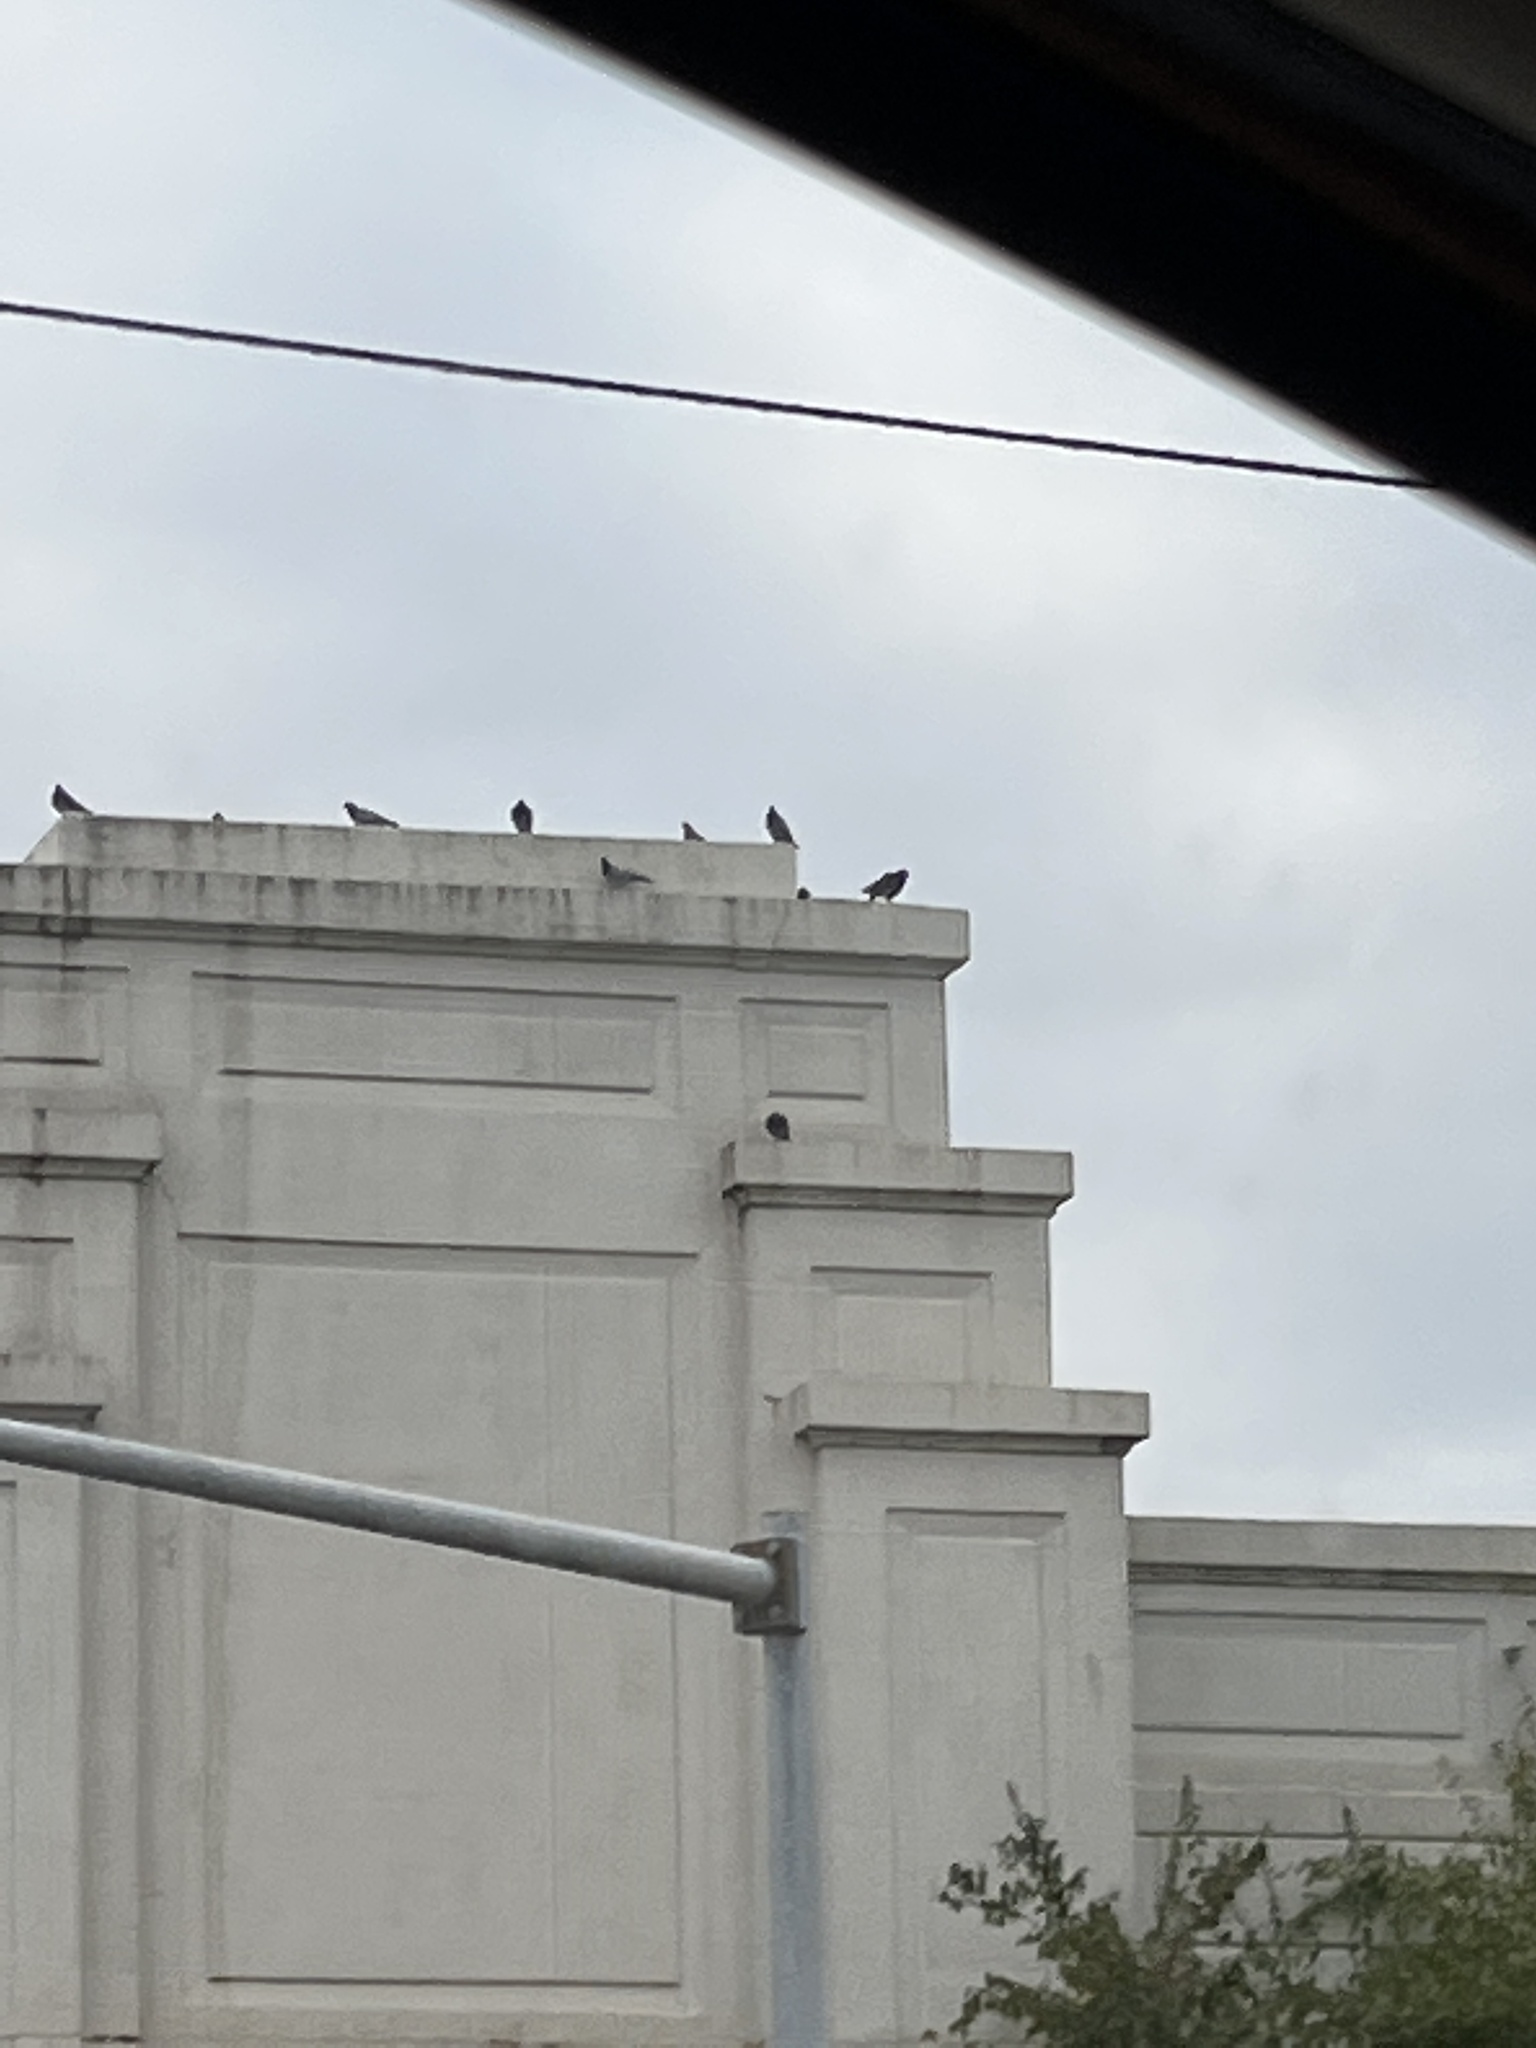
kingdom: Animalia
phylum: Chordata
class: Aves
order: Columbiformes
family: Columbidae
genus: Columba
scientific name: Columba livia
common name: Rock pigeon
